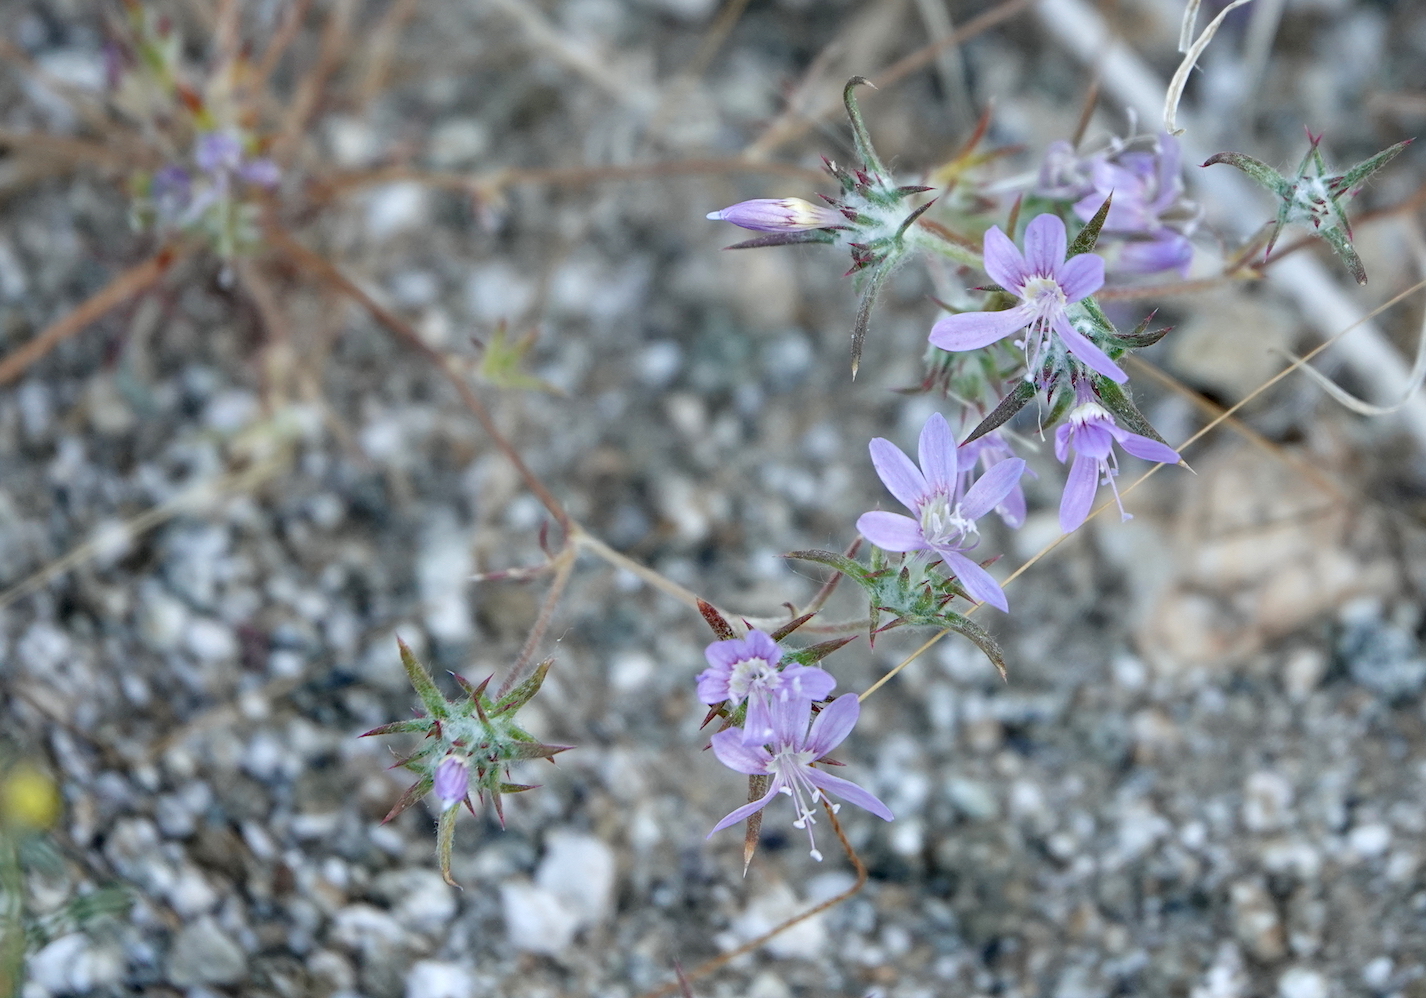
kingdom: Plantae
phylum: Tracheophyta
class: Magnoliopsida
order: Ericales
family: Polemoniaceae
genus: Eriastrum
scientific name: Eriastrum eremicum
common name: Desert eriastrum
